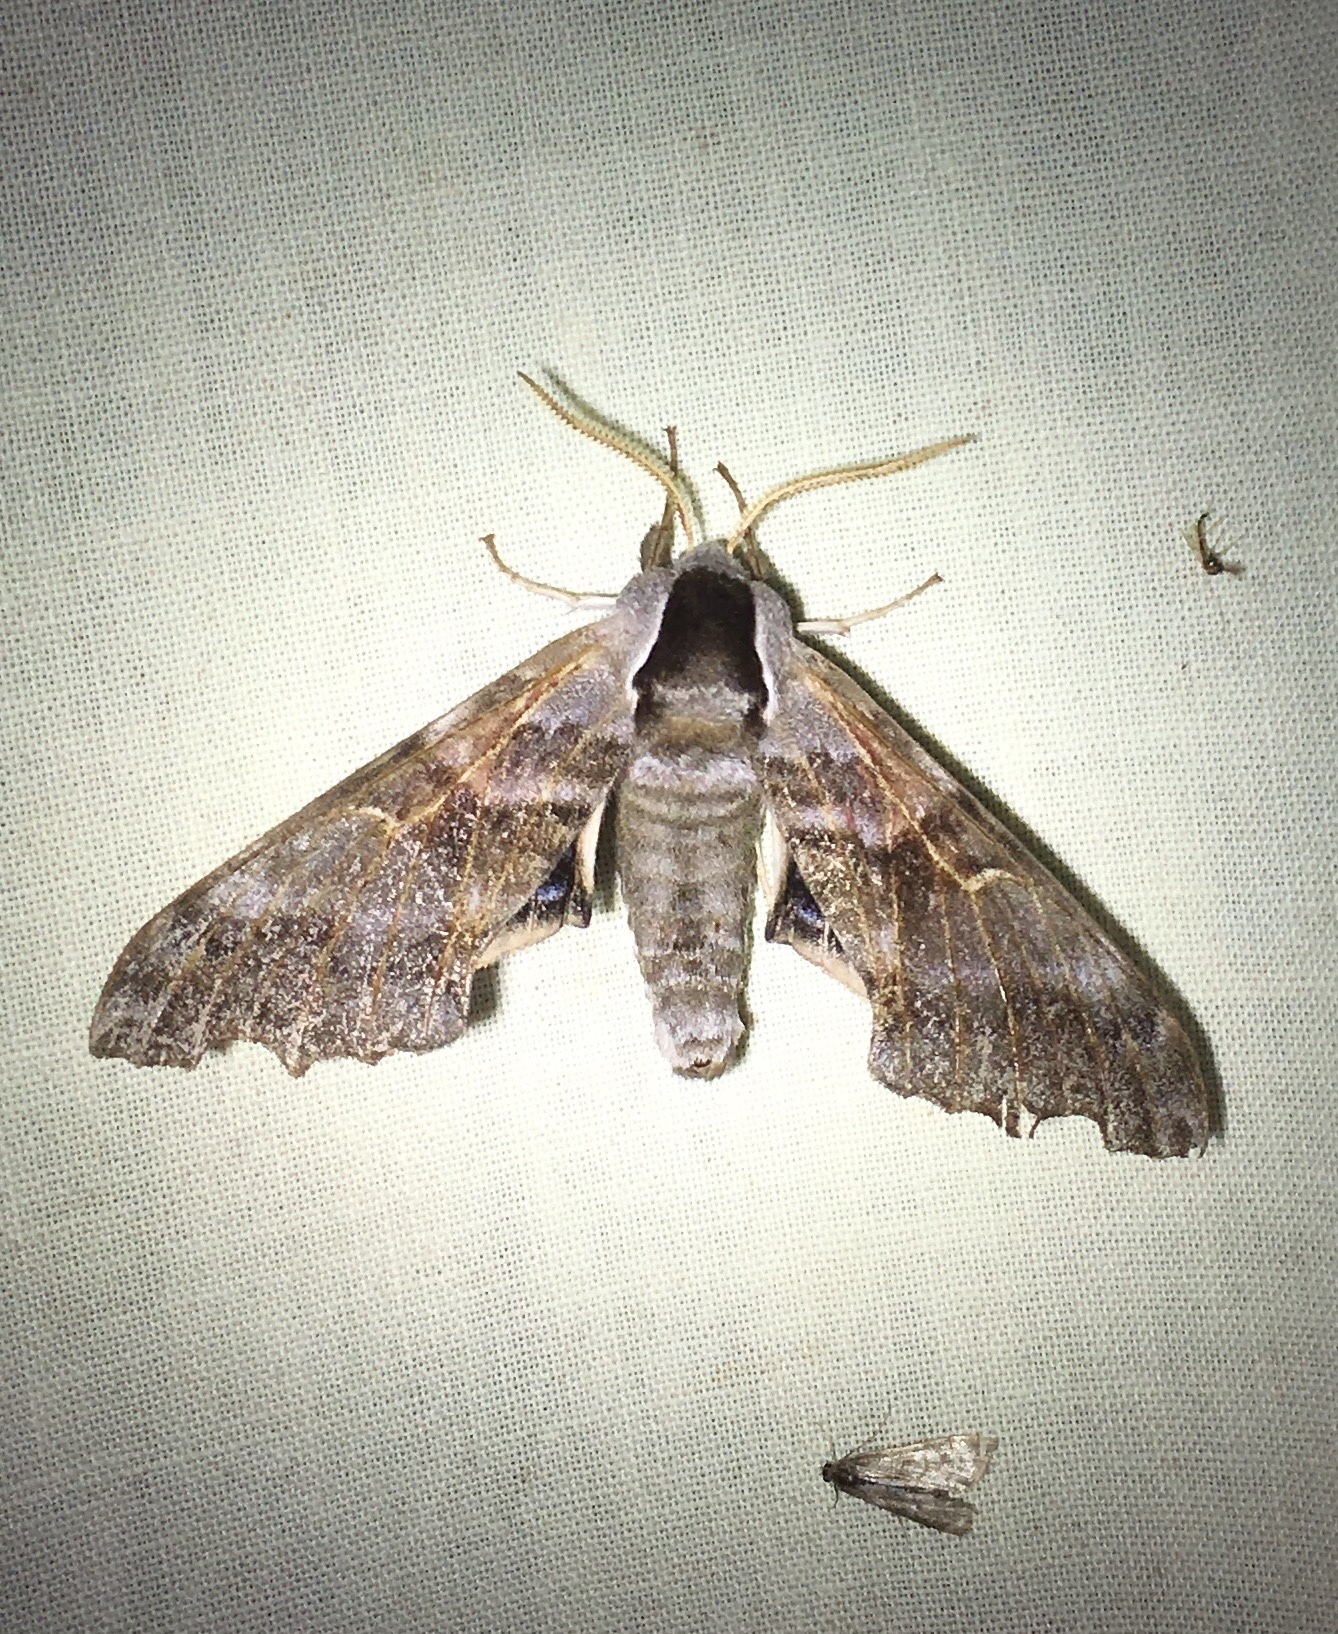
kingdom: Animalia
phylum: Arthropoda
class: Insecta
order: Lepidoptera
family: Sphingidae
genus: Smerinthus
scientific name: Smerinthus cerisyi
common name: Cerisy's sphinx moth
